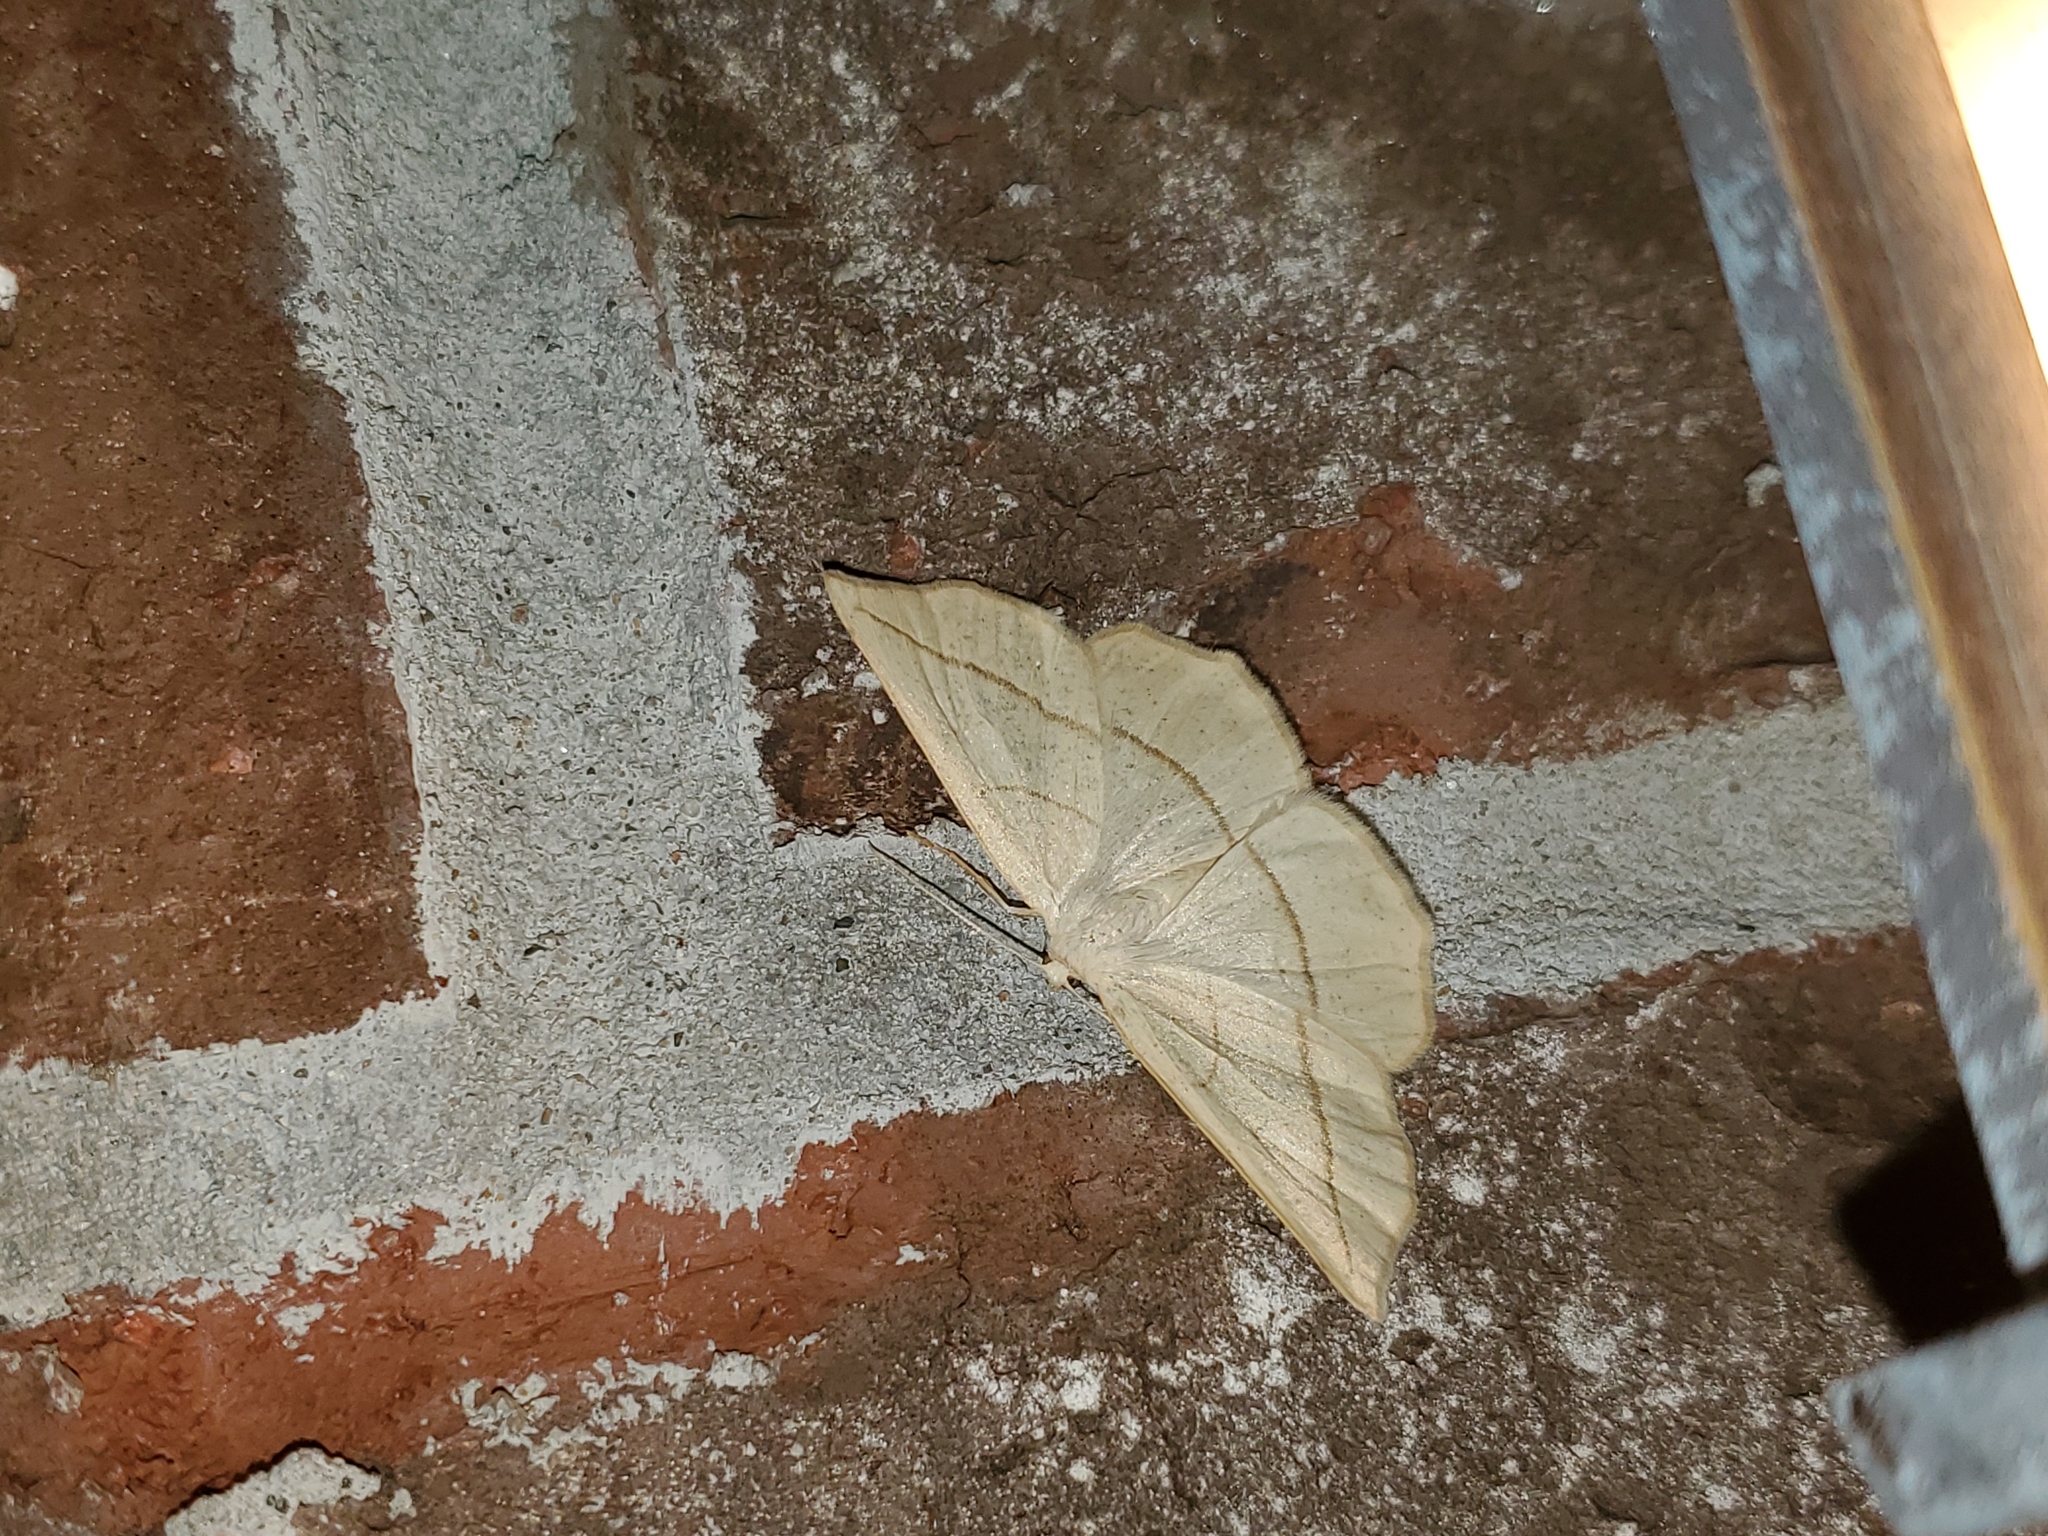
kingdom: Animalia
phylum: Arthropoda
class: Insecta
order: Lepidoptera
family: Geometridae
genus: Eusarca
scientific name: Eusarca confusaria
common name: Confused eusarca
